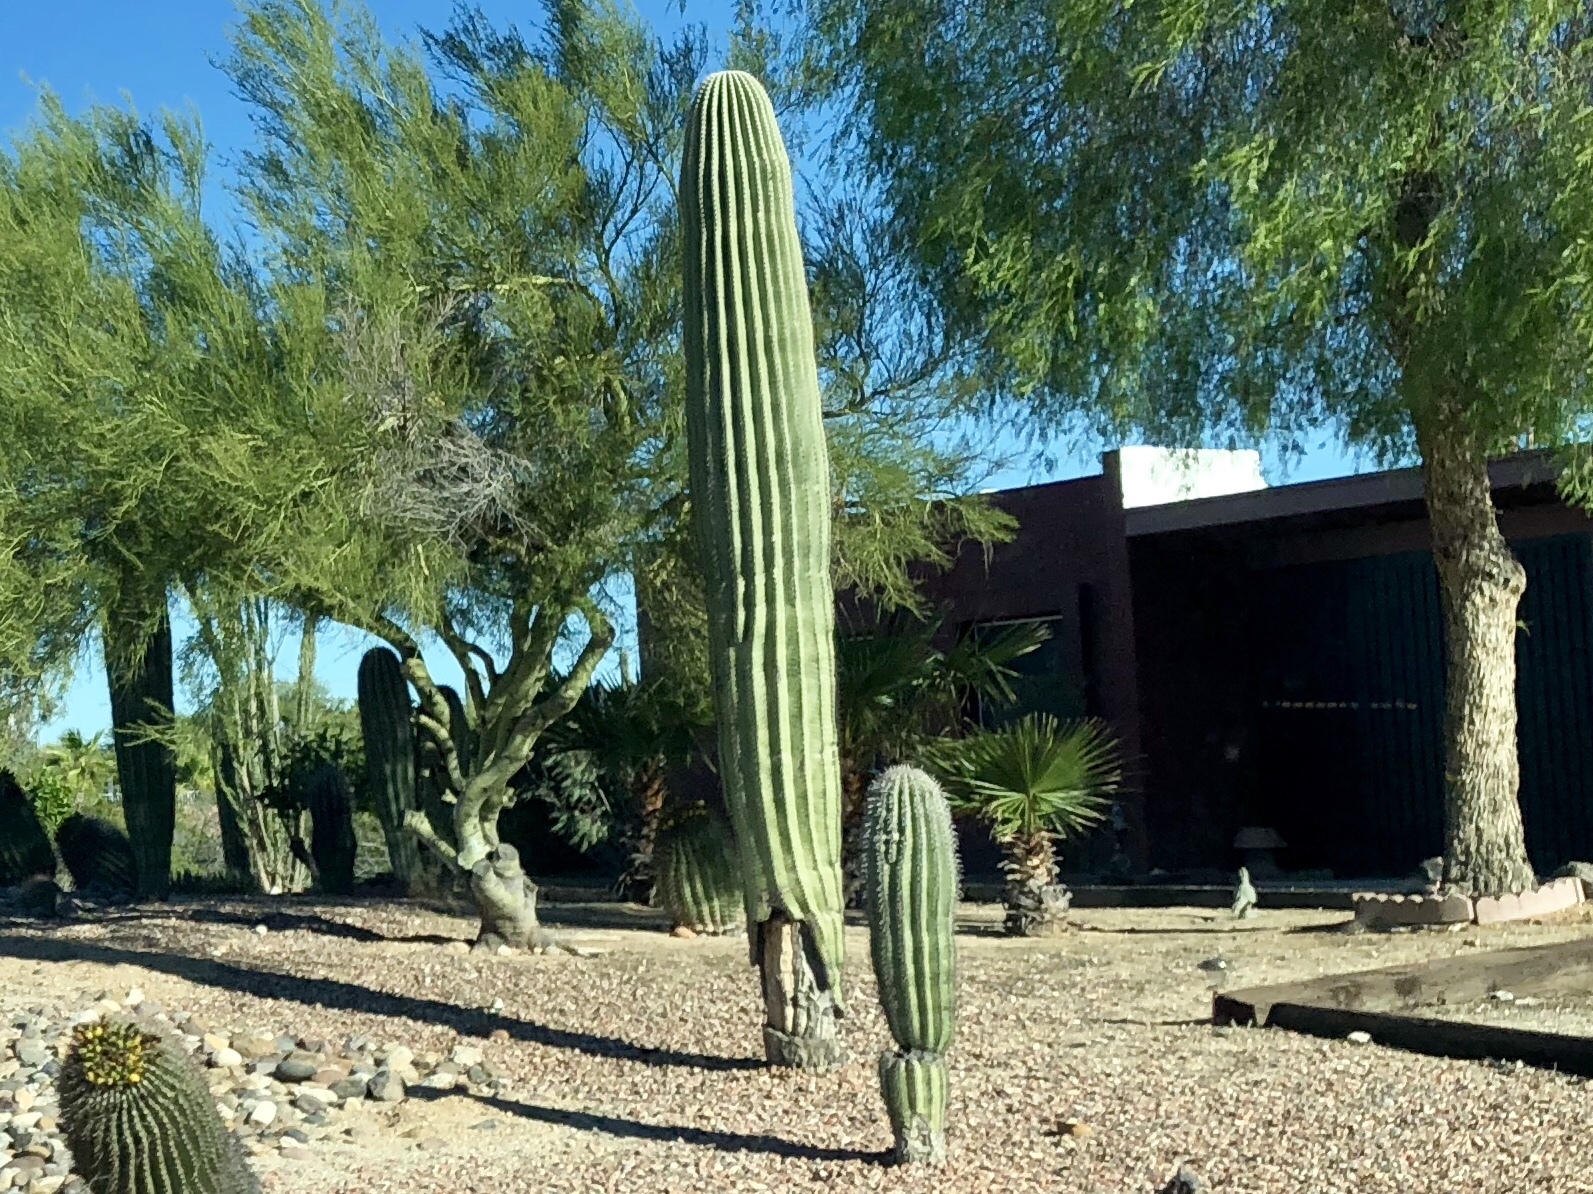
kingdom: Plantae
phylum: Tracheophyta
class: Magnoliopsida
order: Caryophyllales
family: Cactaceae
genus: Carnegiea
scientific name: Carnegiea gigantea
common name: Saguaro
